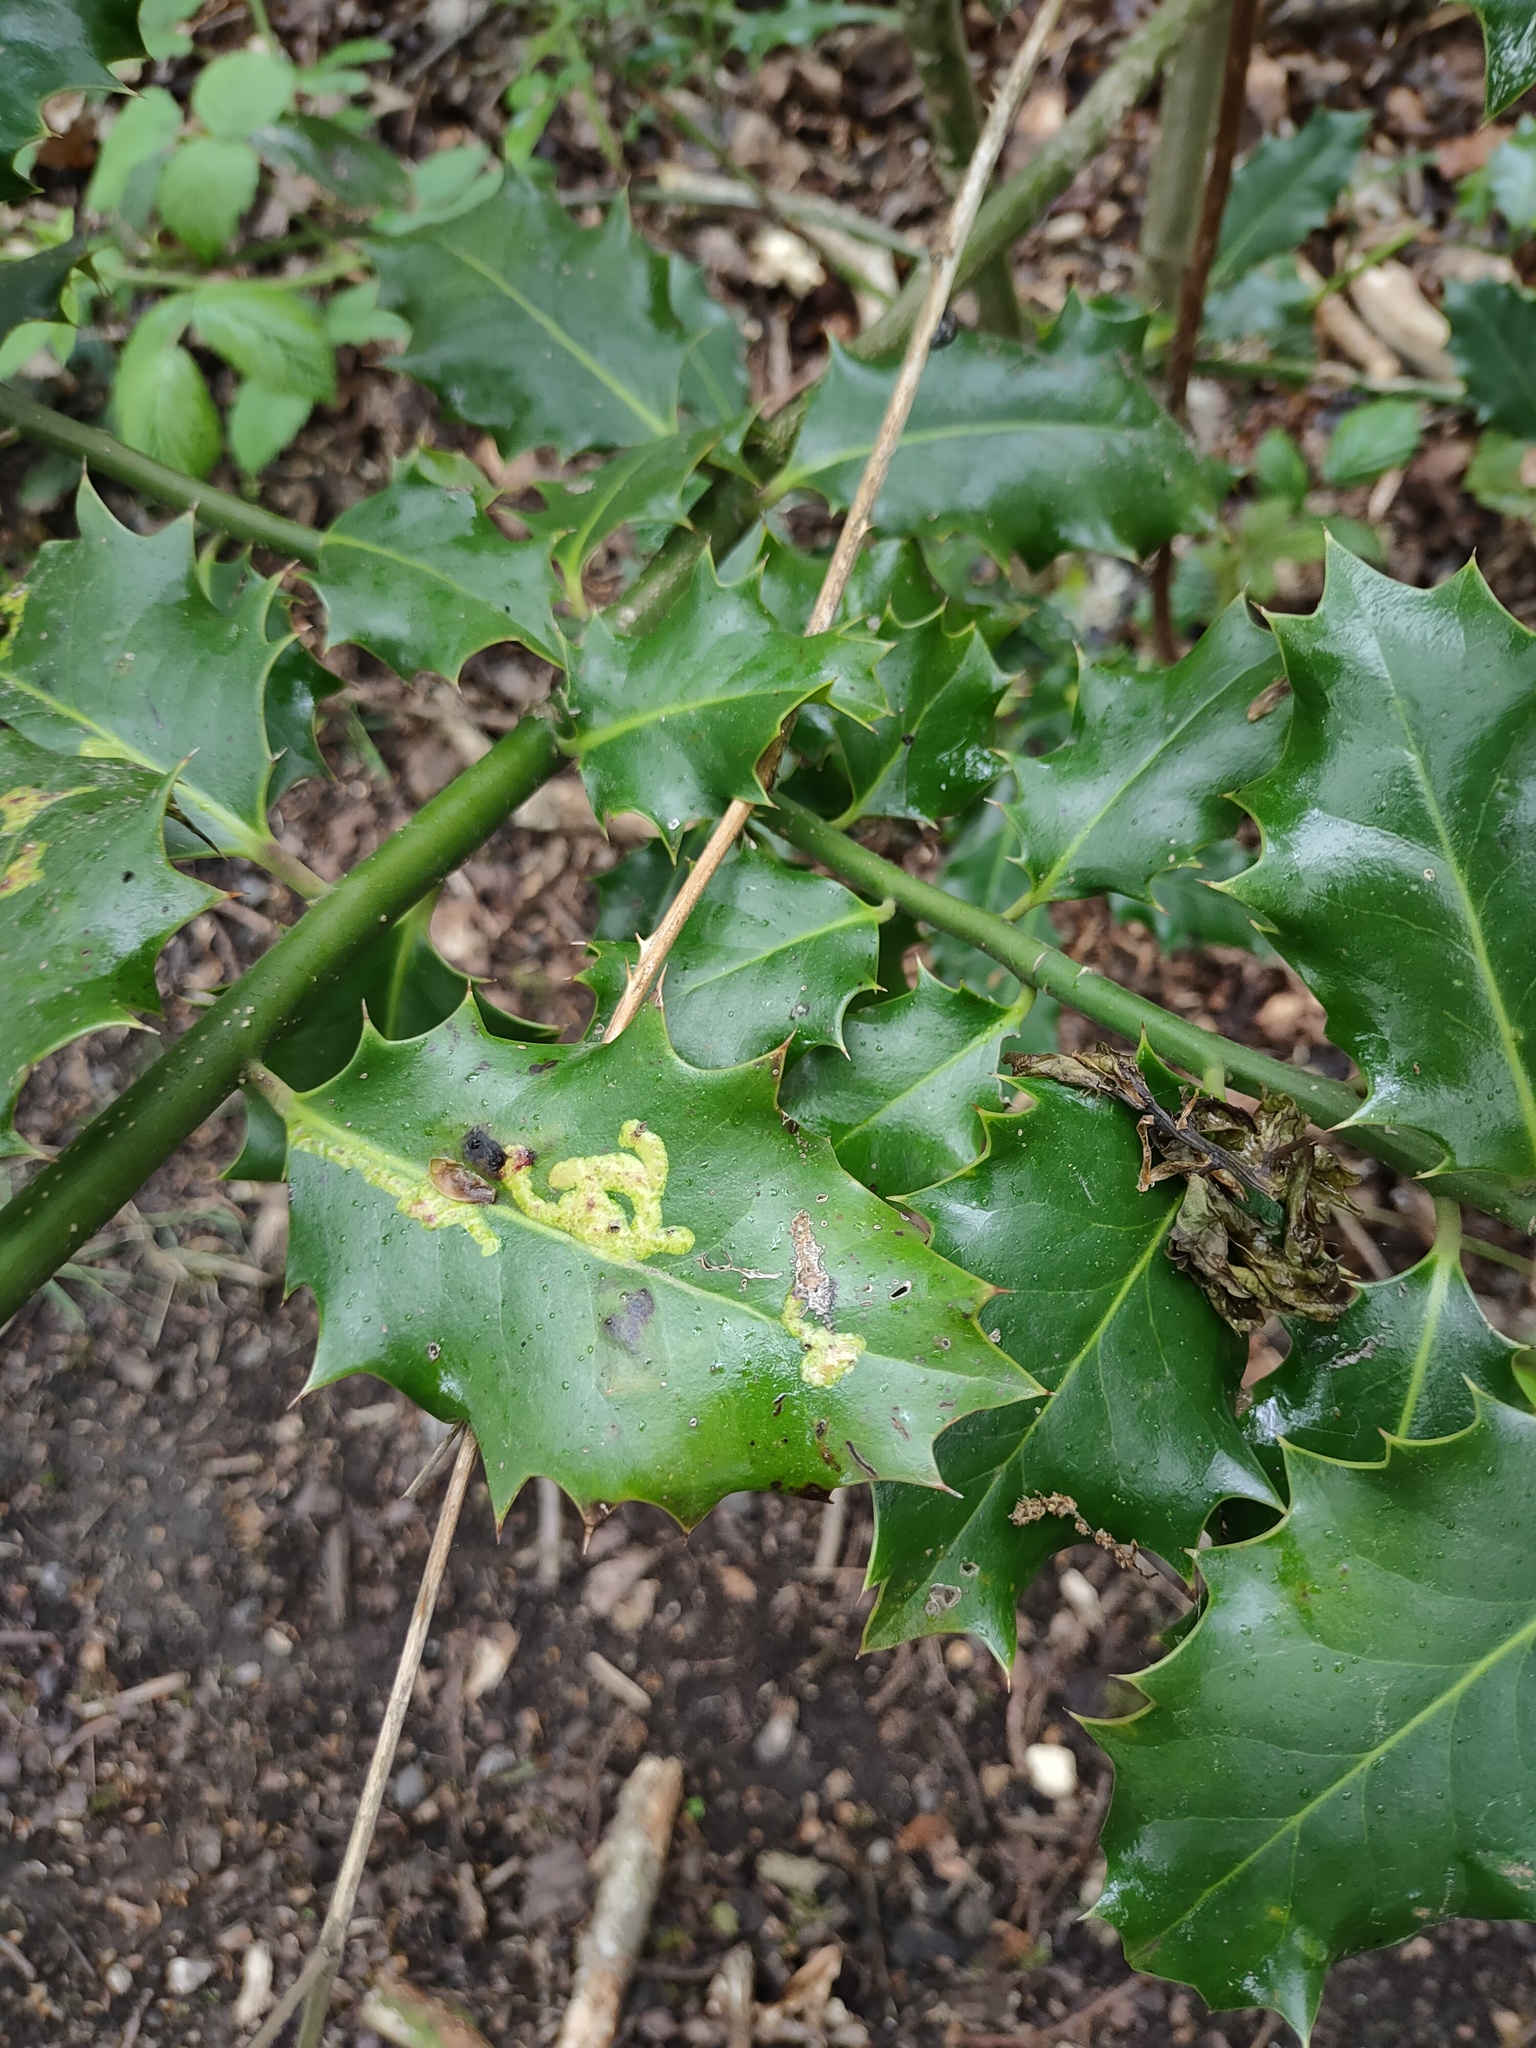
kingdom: Animalia
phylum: Arthropoda
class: Insecta
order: Diptera
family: Agromyzidae
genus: Phytomyza
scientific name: Phytomyza ilicis
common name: Holly leafminer
